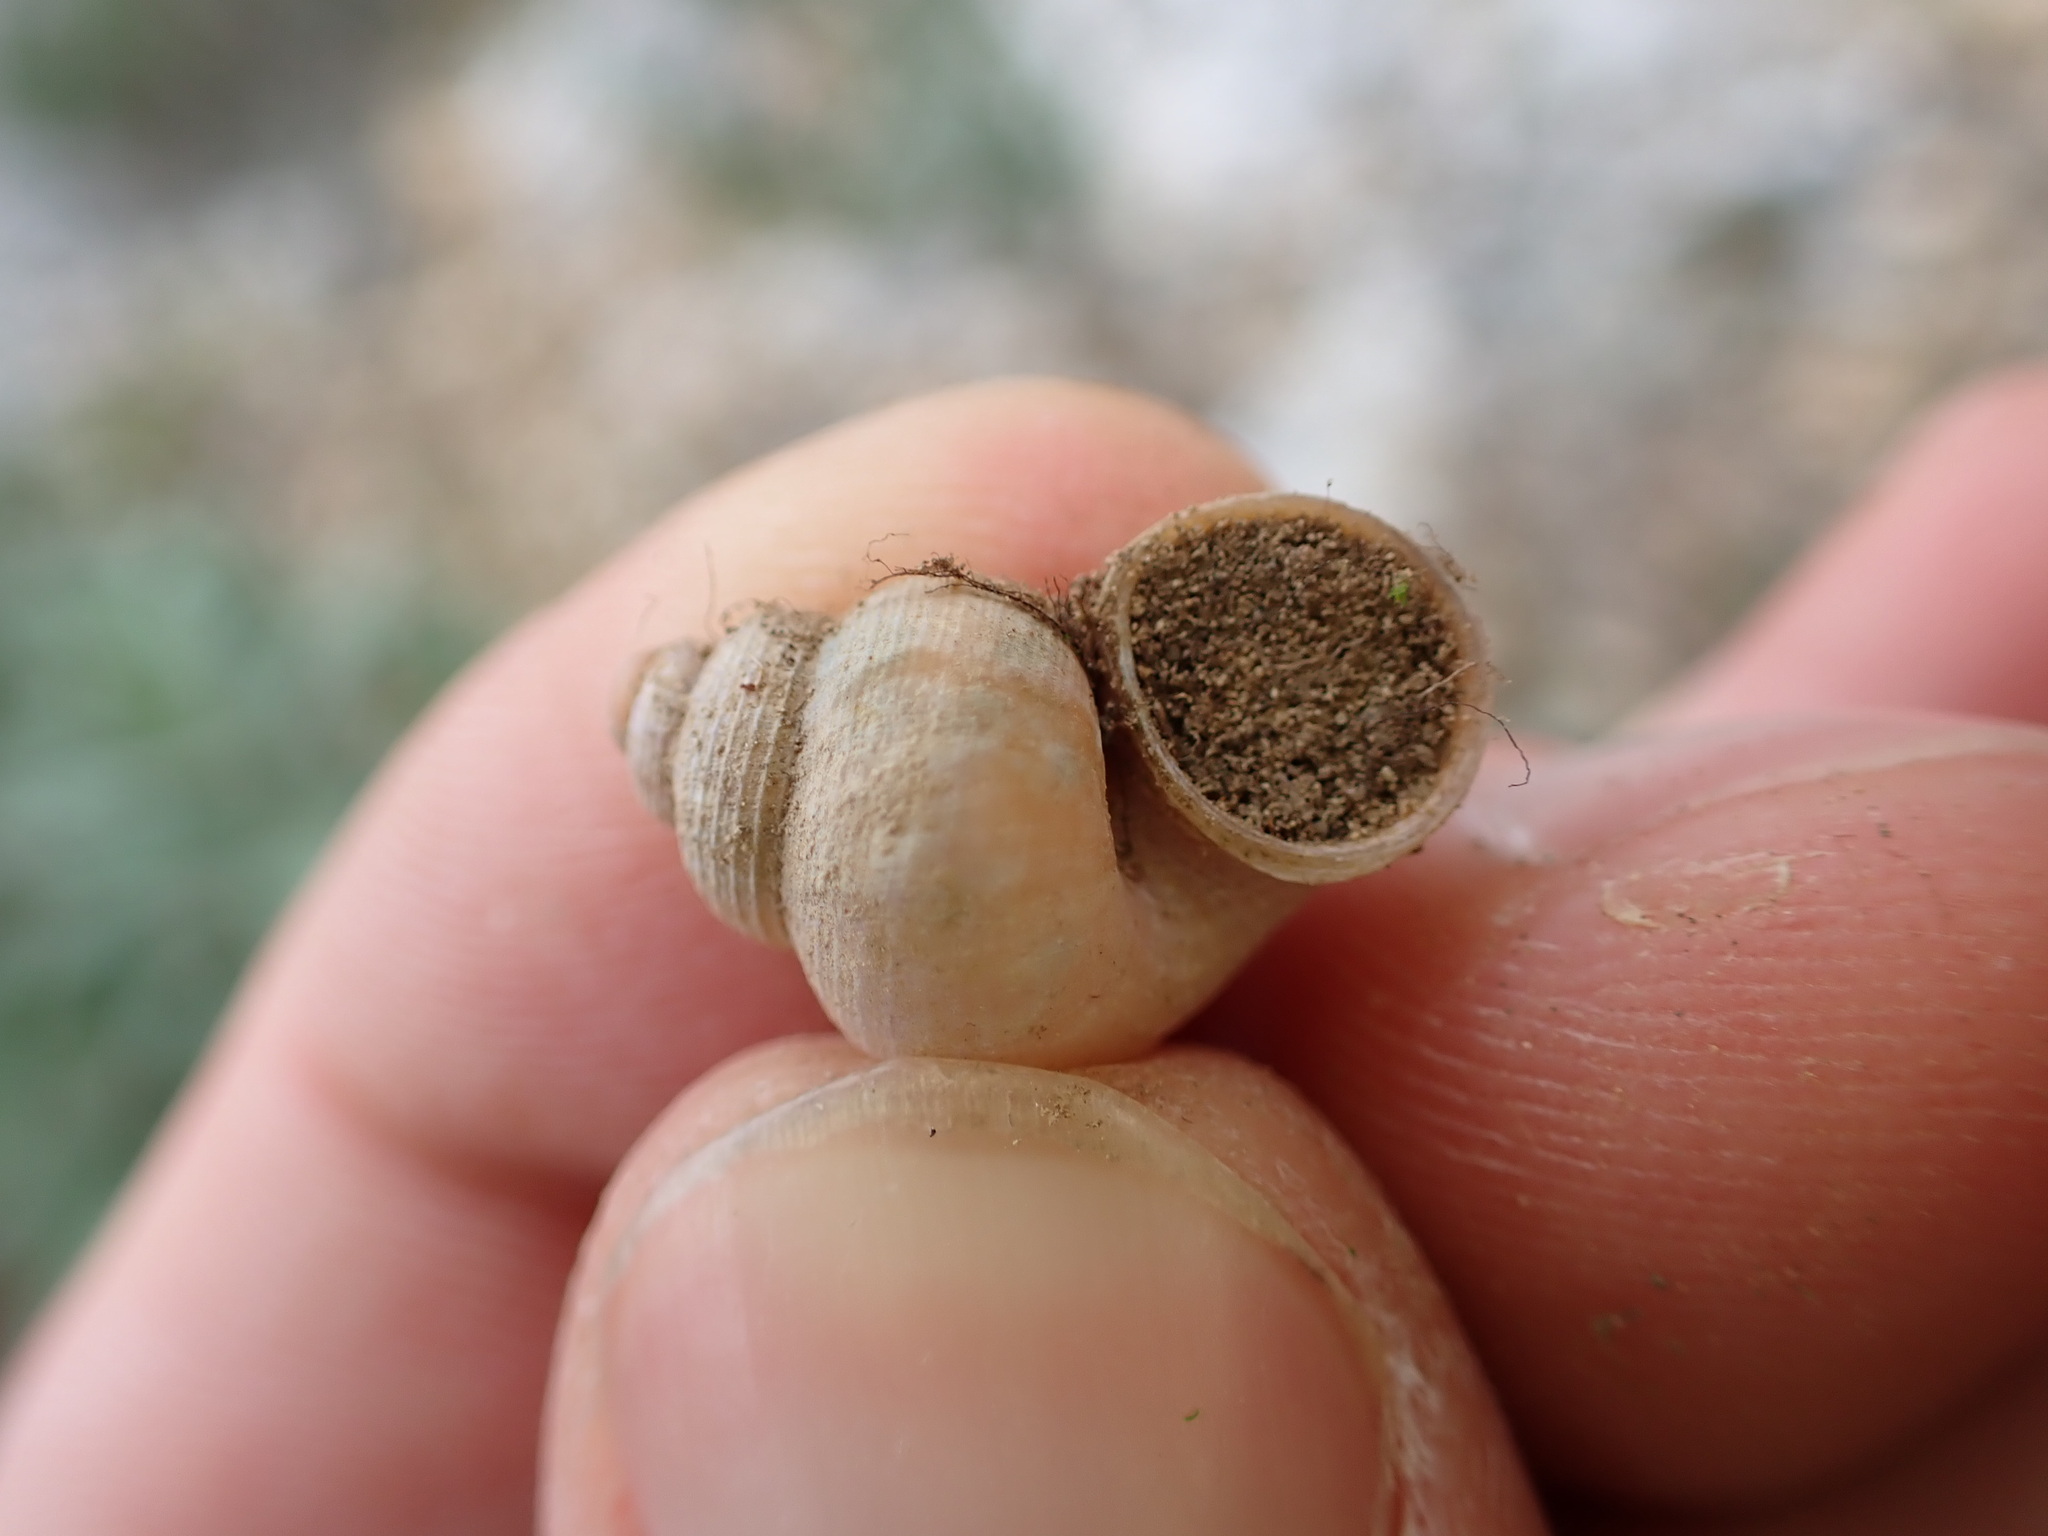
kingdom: Animalia
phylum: Mollusca
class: Gastropoda
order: Littorinimorpha
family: Pomatiidae
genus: Tudorella
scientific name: Tudorella sulcata
